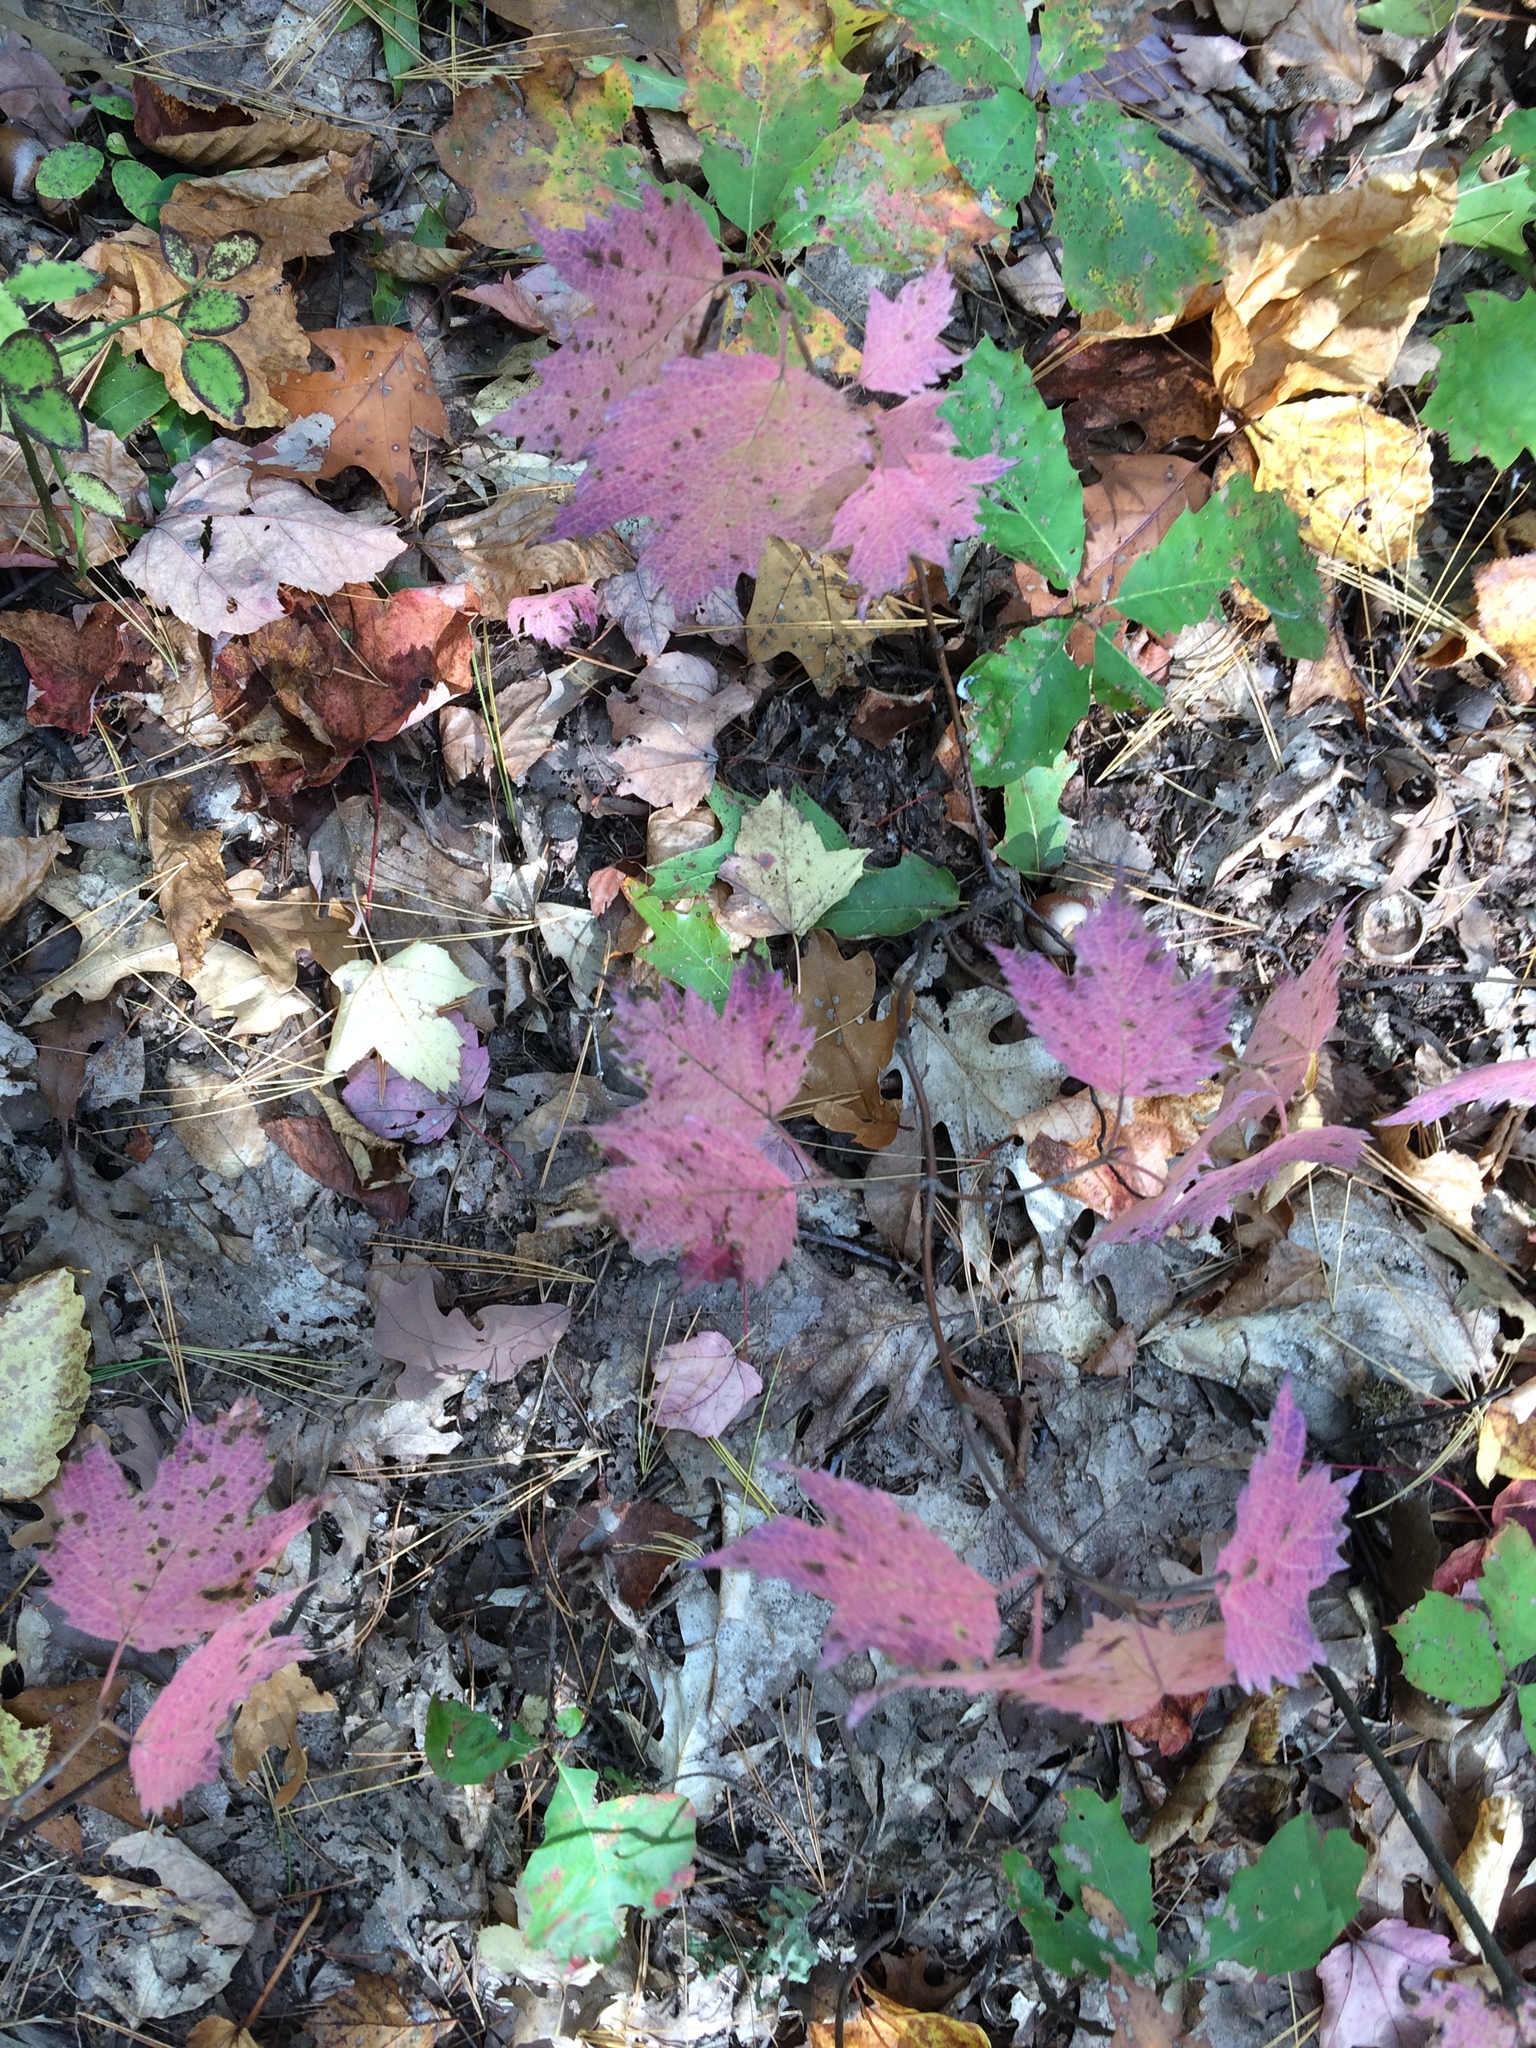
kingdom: Plantae
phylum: Tracheophyta
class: Magnoliopsida
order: Dipsacales
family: Viburnaceae
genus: Viburnum
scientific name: Viburnum acerifolium
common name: Dockmackie
